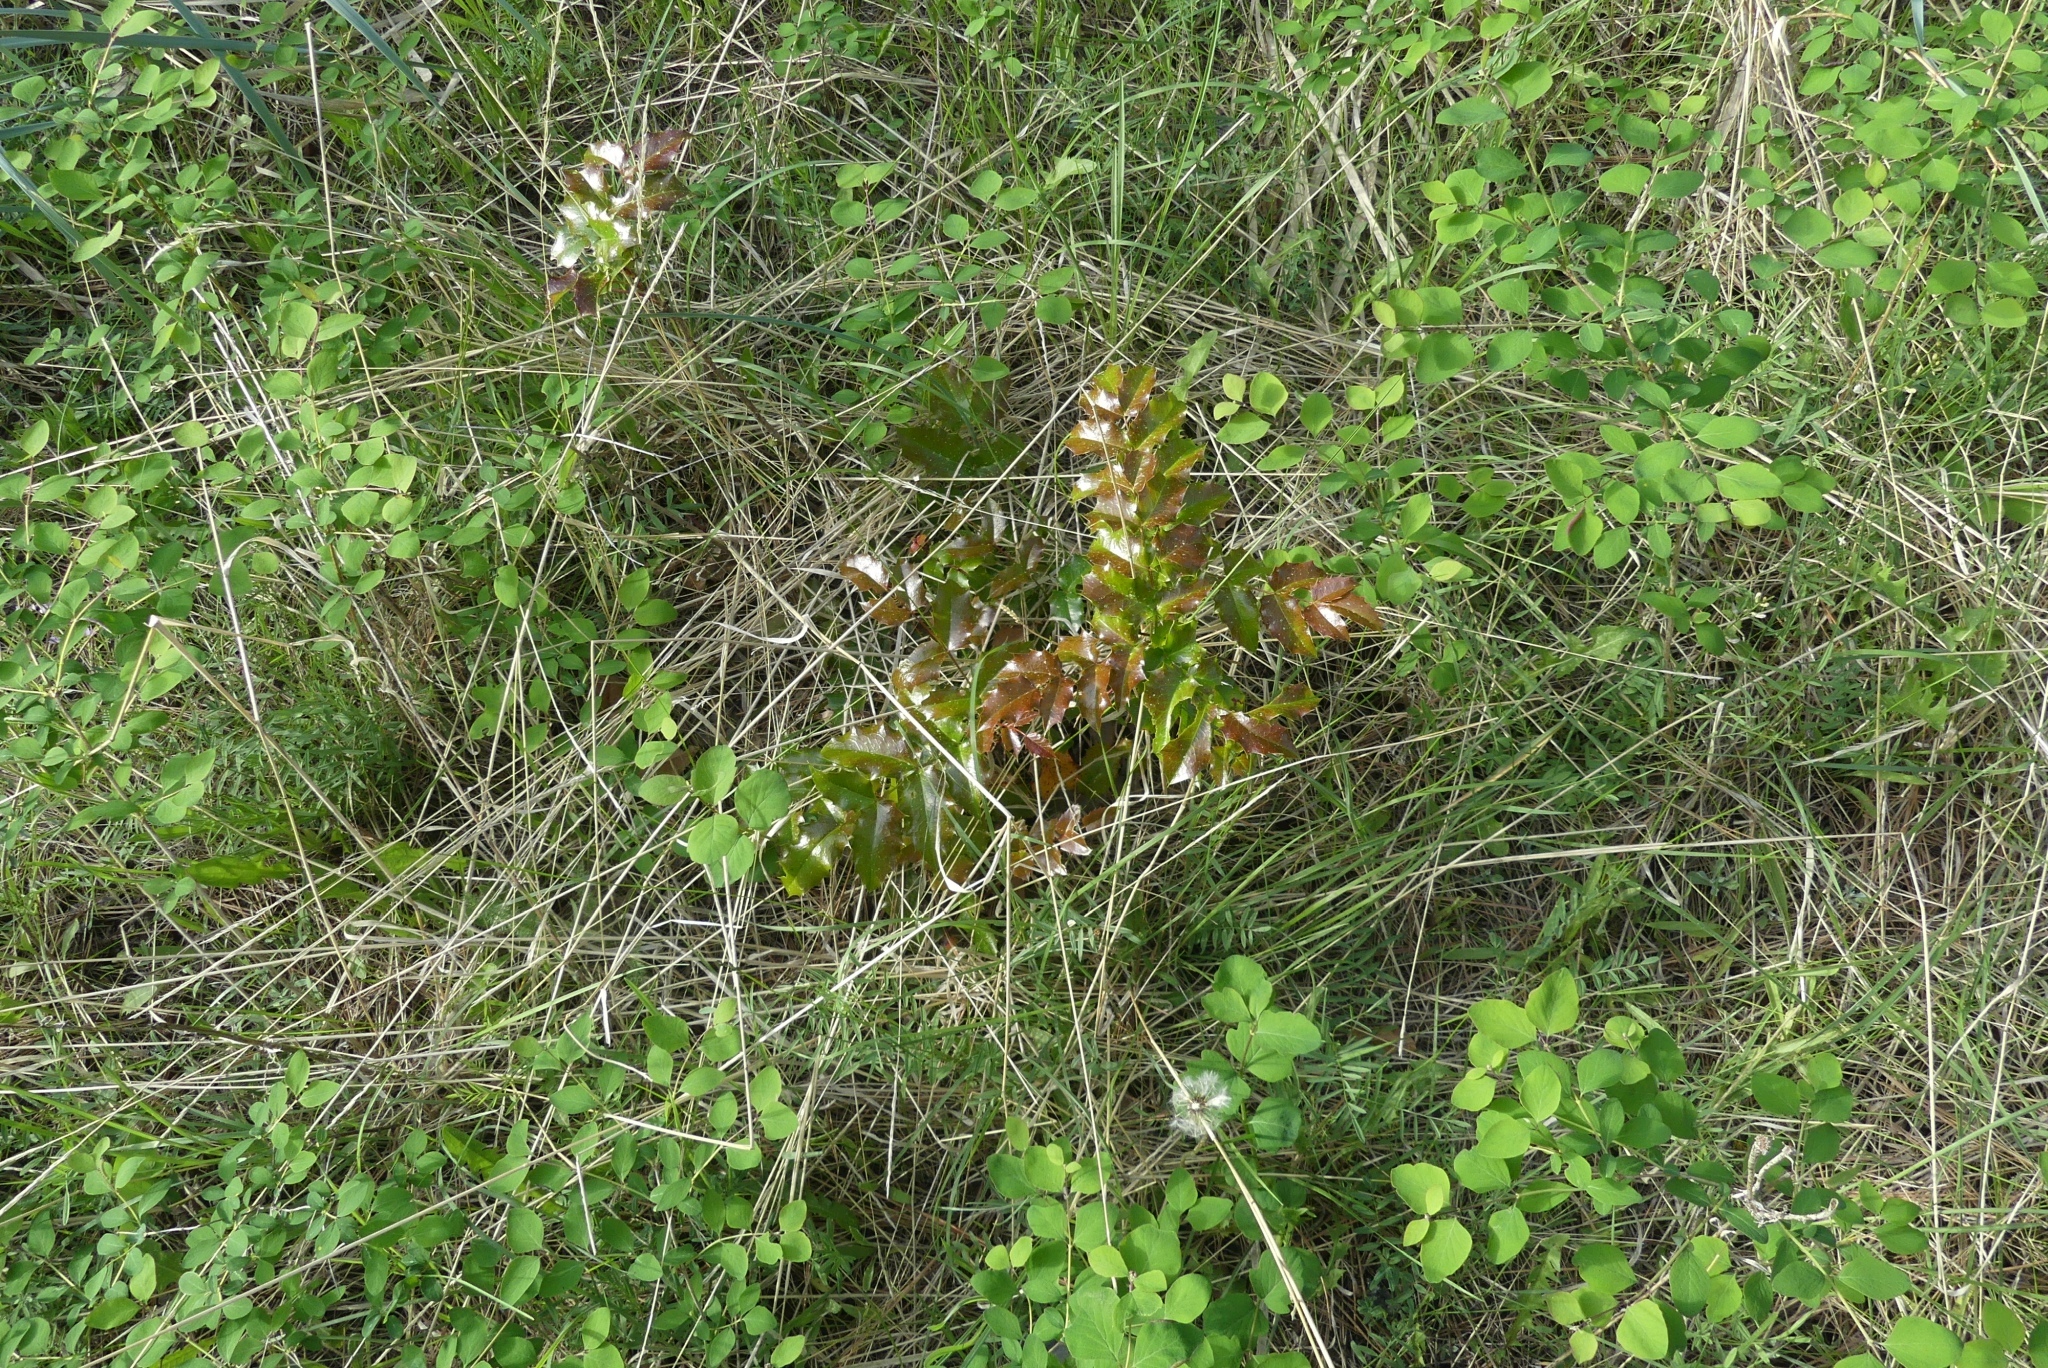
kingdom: Plantae
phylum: Tracheophyta
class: Magnoliopsida
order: Ranunculales
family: Berberidaceae
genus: Mahonia
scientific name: Mahonia aquifolium
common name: Oregon-grape
